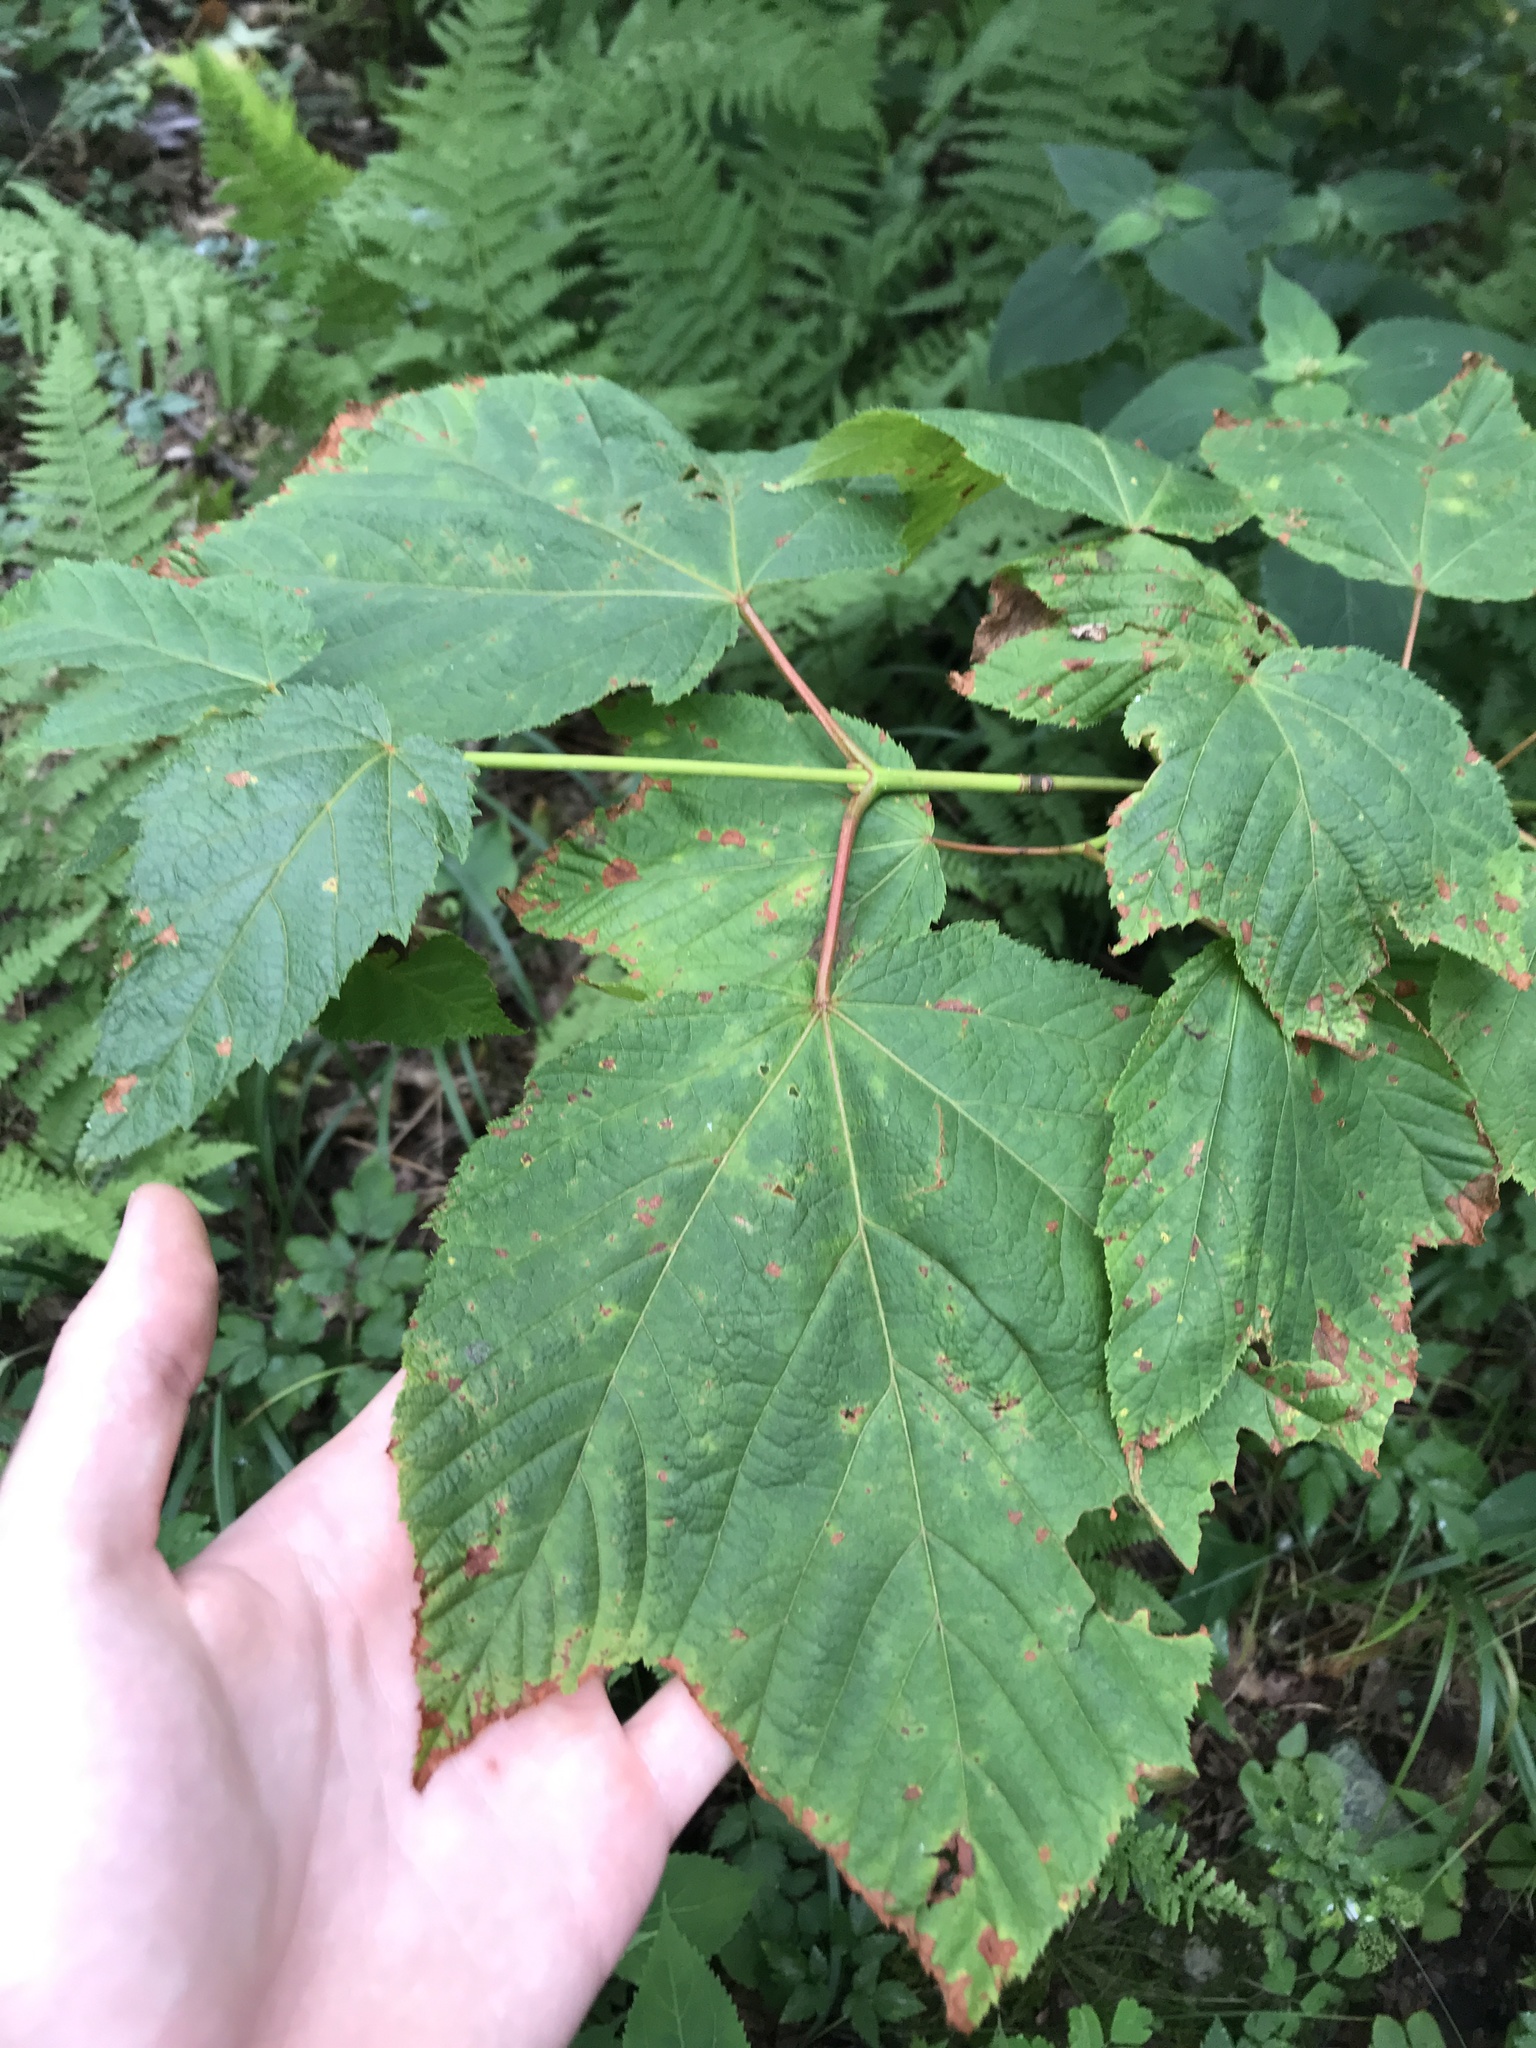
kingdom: Plantae
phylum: Tracheophyta
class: Magnoliopsida
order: Sapindales
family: Sapindaceae
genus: Acer
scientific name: Acer pensylvanicum
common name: Moosewood
